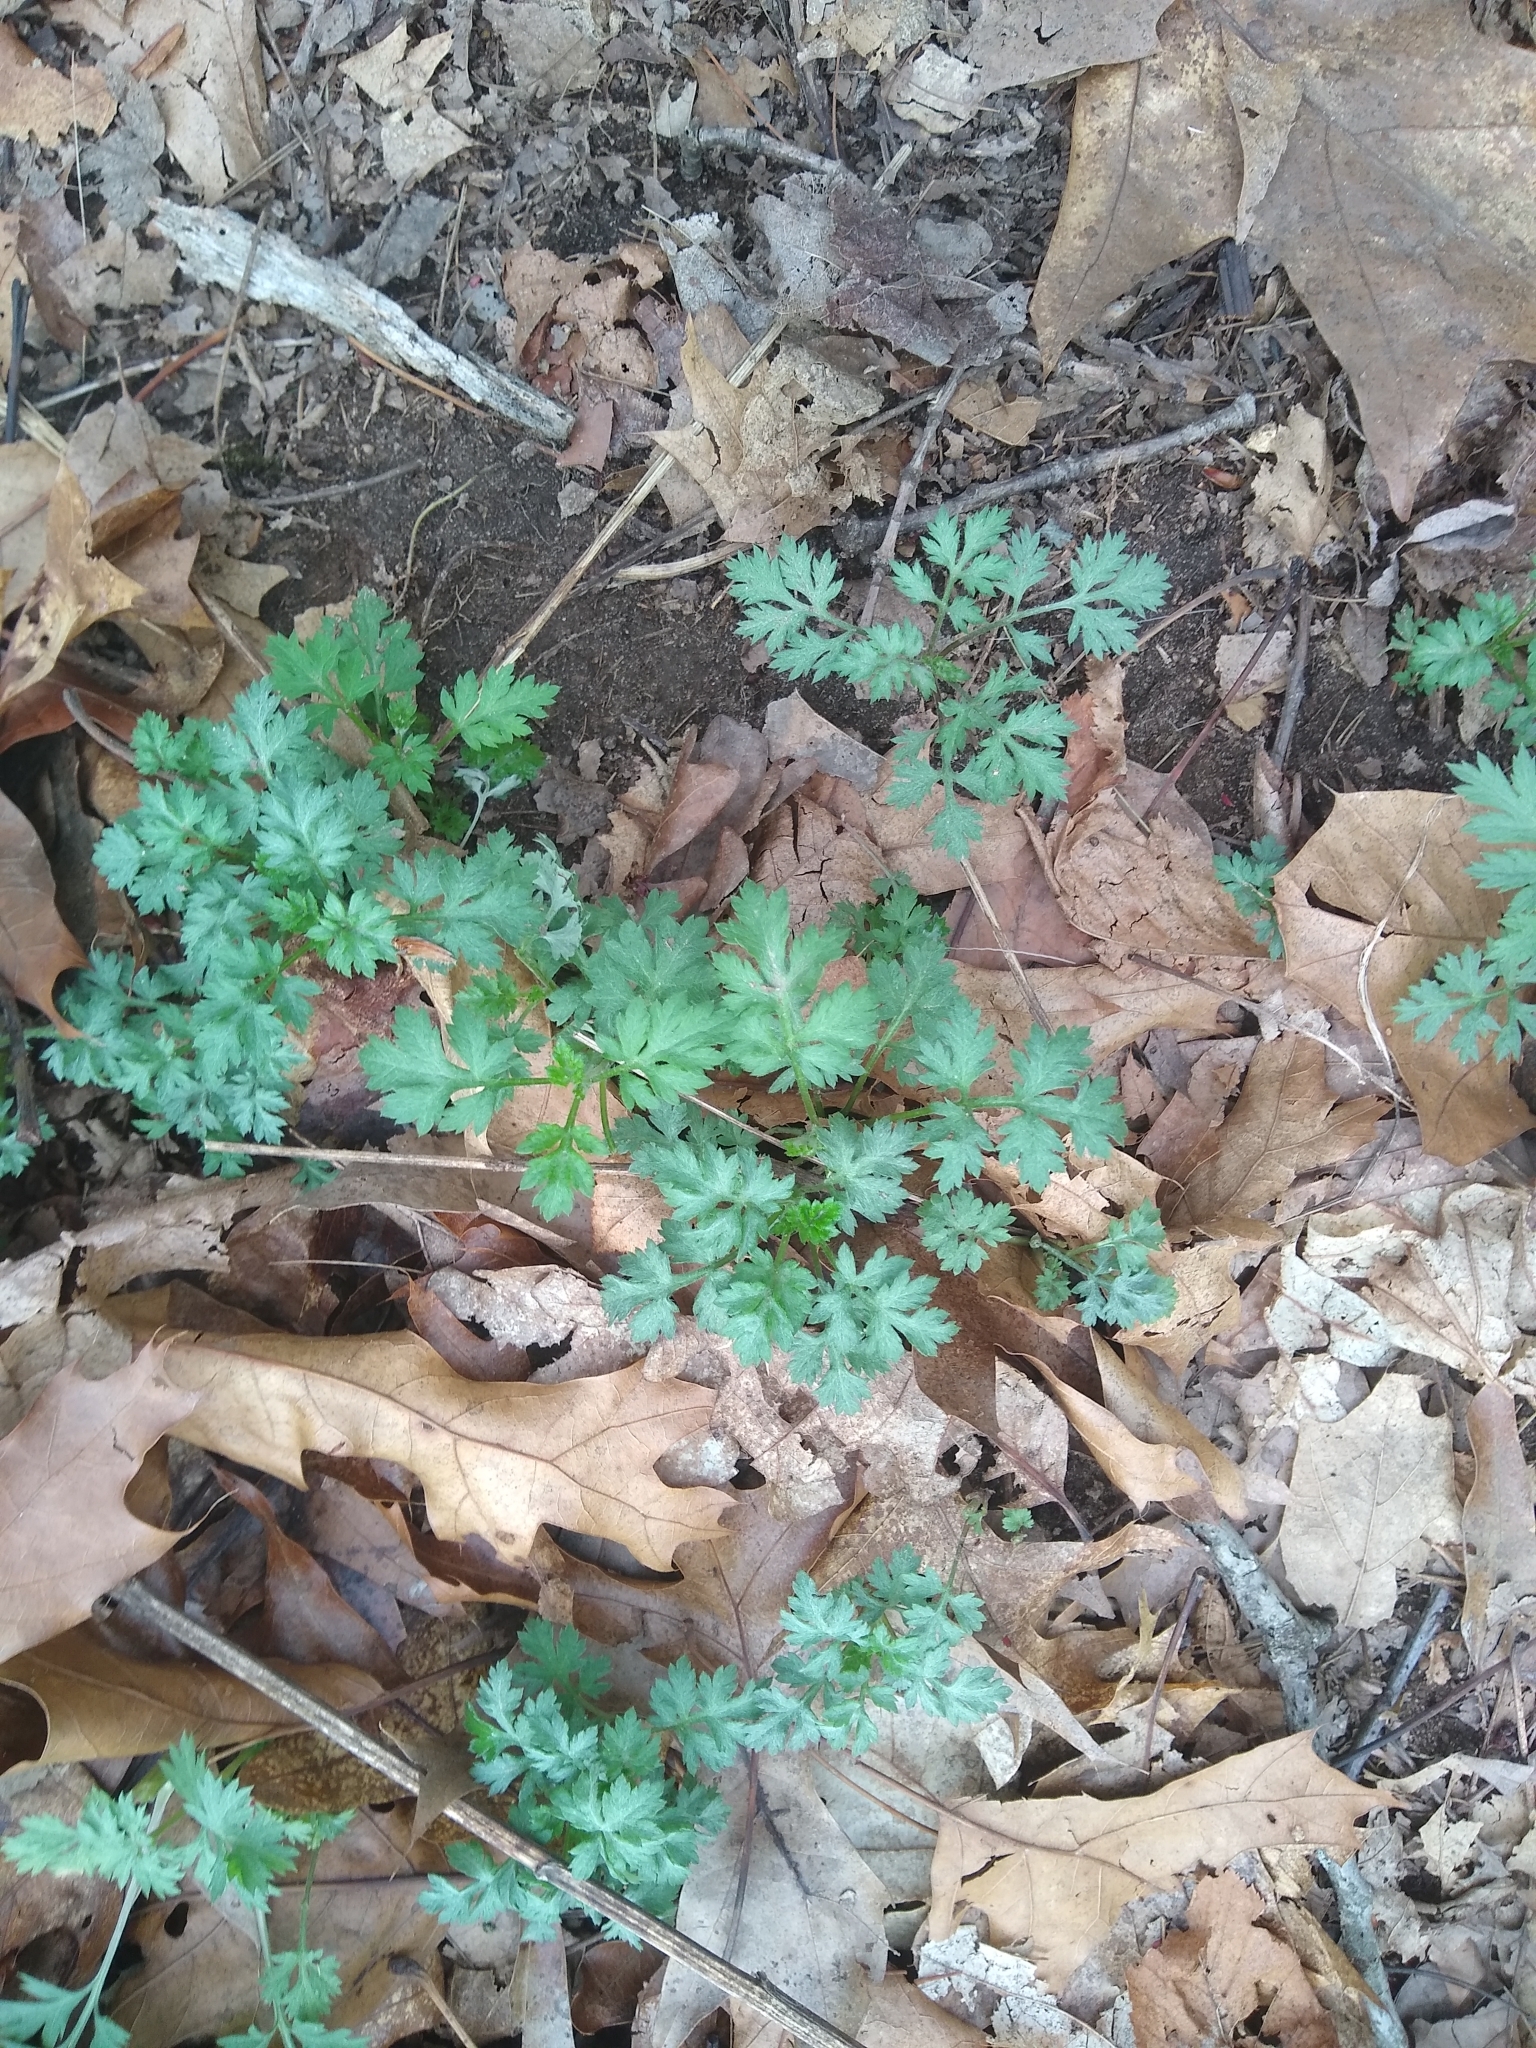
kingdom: Plantae
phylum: Tracheophyta
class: Magnoliopsida
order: Asterales
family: Asteraceae
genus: Artemisia
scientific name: Artemisia vulgaris
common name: Mugwort
